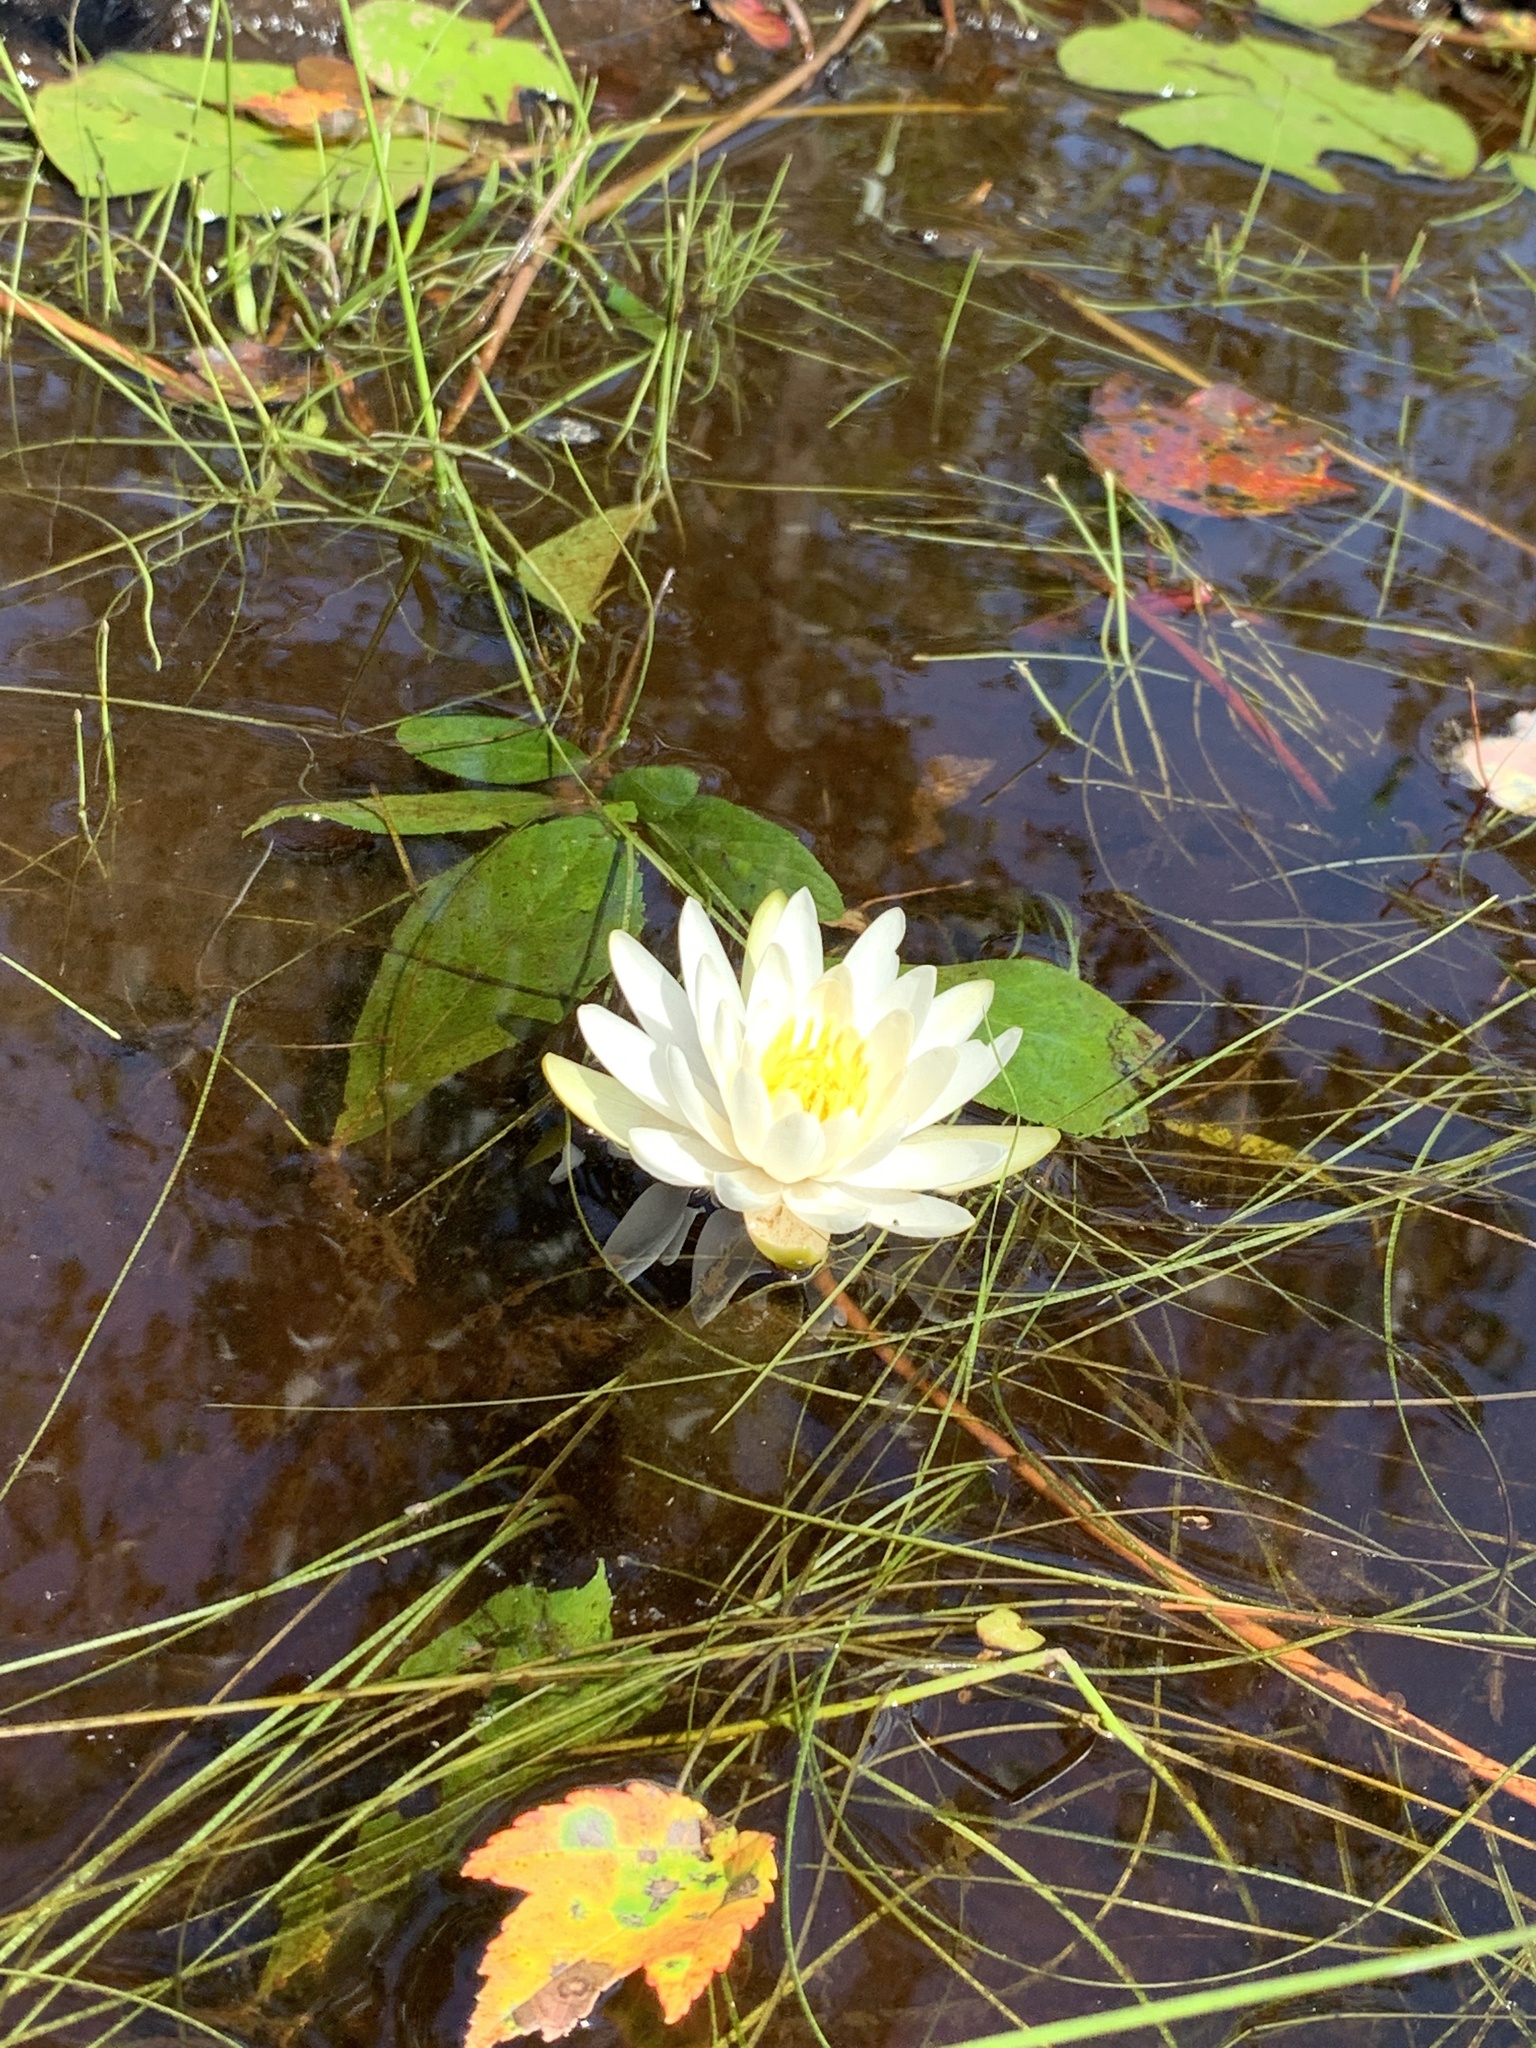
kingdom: Plantae
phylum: Tracheophyta
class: Magnoliopsida
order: Nymphaeales
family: Nymphaeaceae
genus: Nymphaea
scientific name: Nymphaea odorata
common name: Fragrant water-lily
